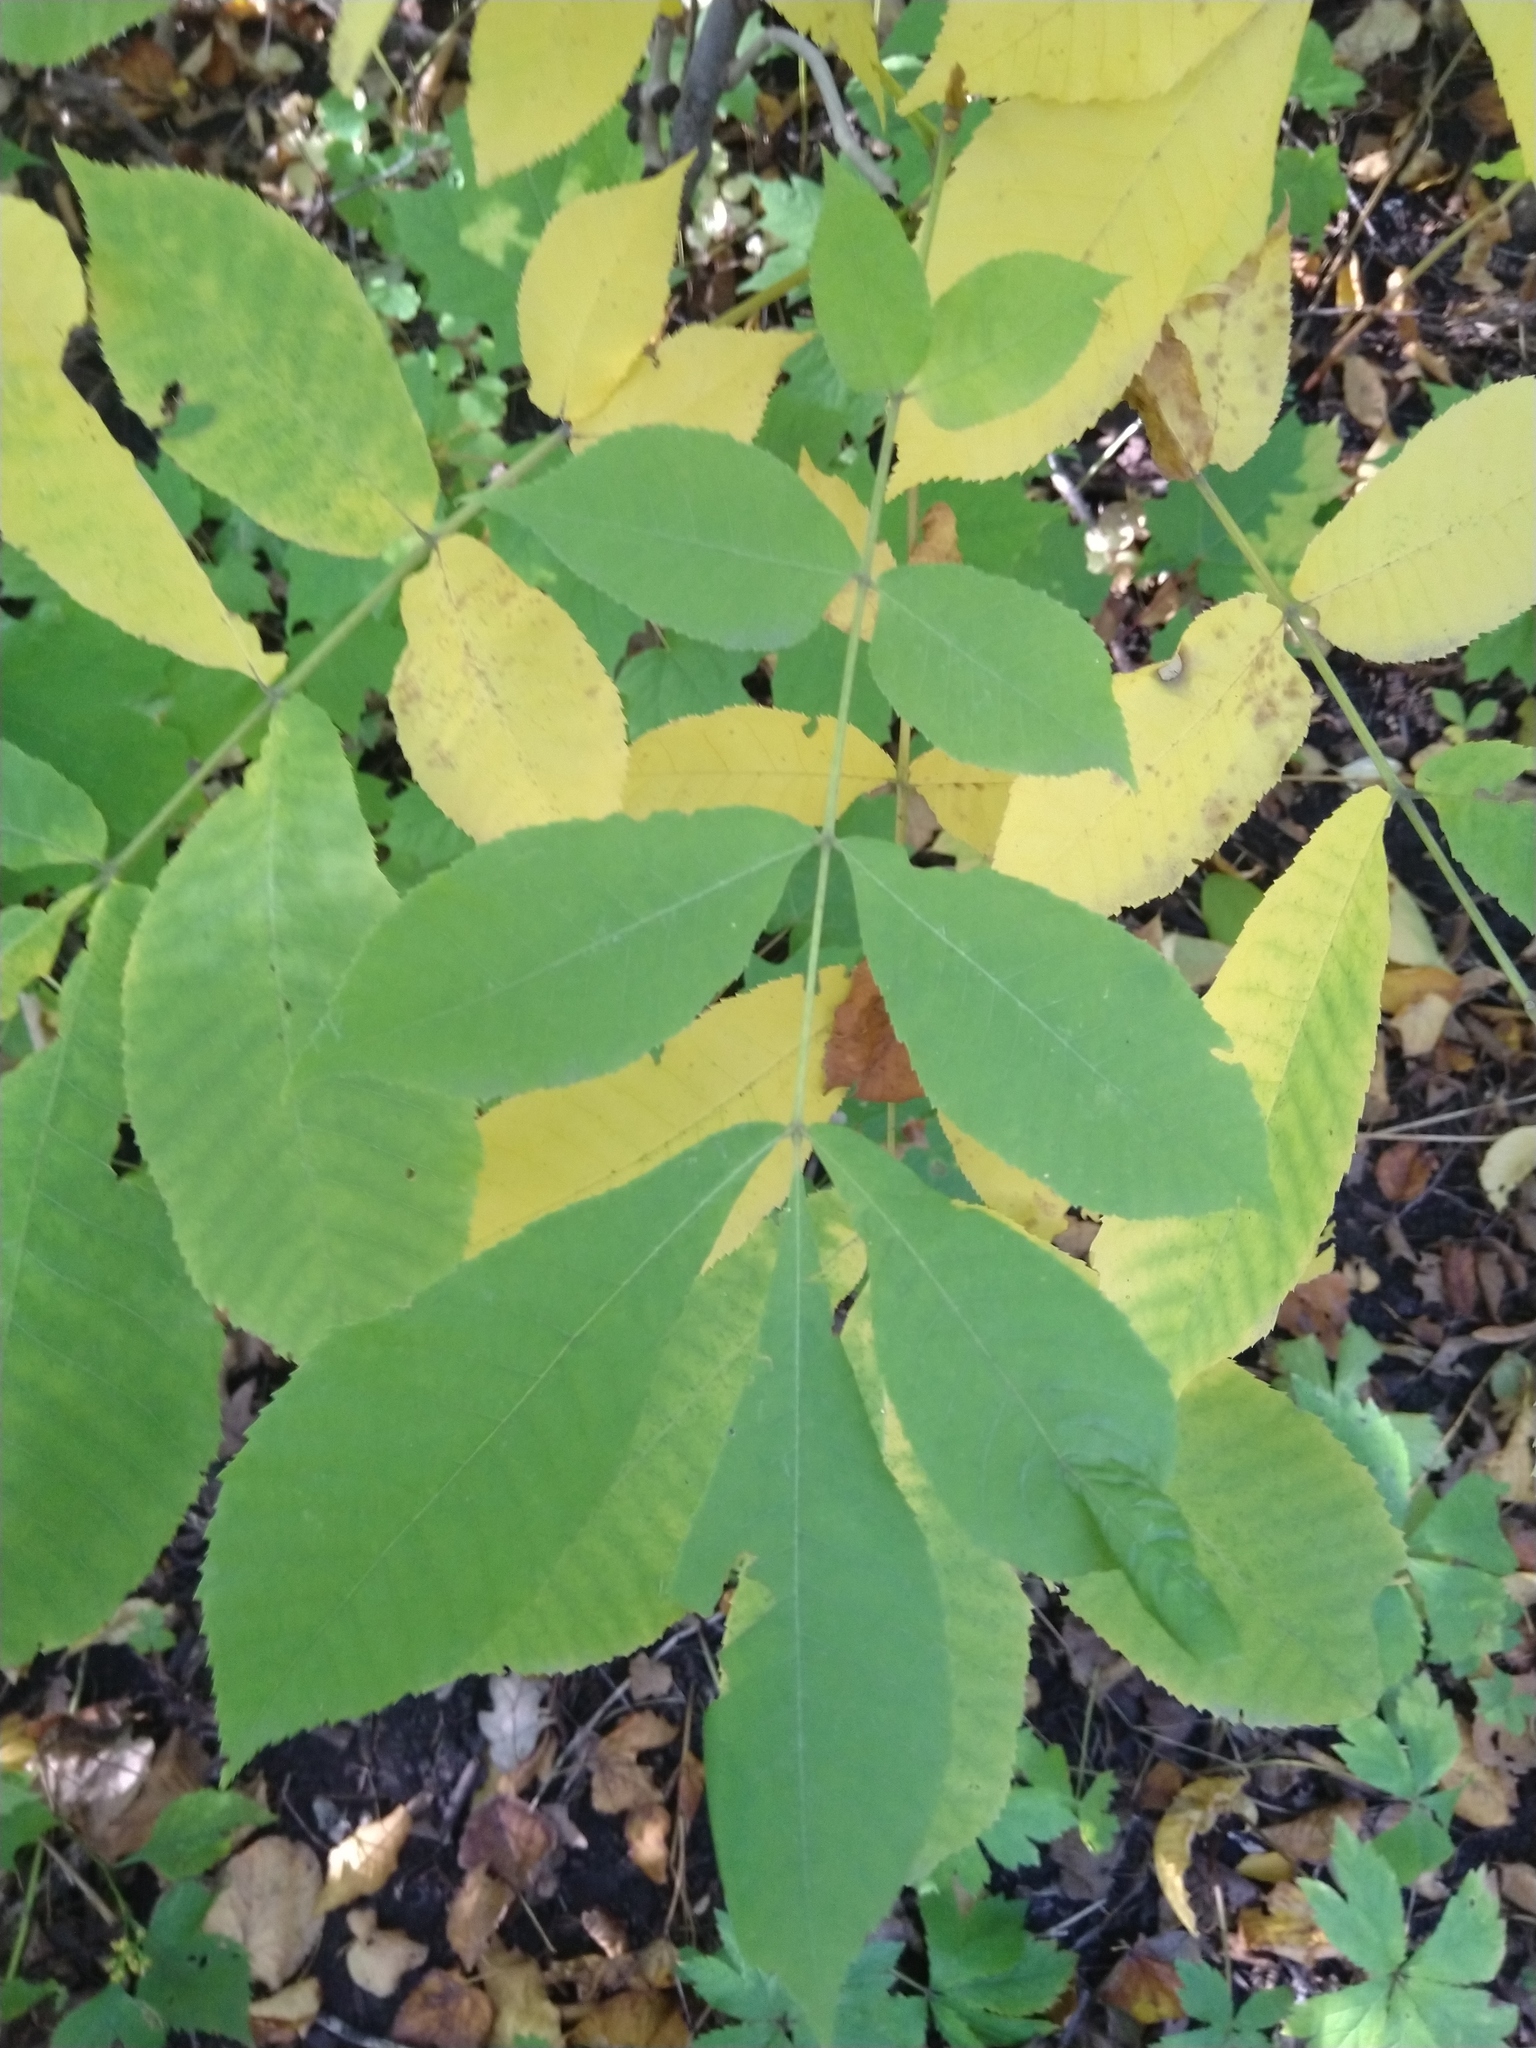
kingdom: Plantae
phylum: Tracheophyta
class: Magnoliopsida
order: Fagales
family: Juglandaceae
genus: Carya
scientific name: Carya cordiformis
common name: Bitternut hickory
